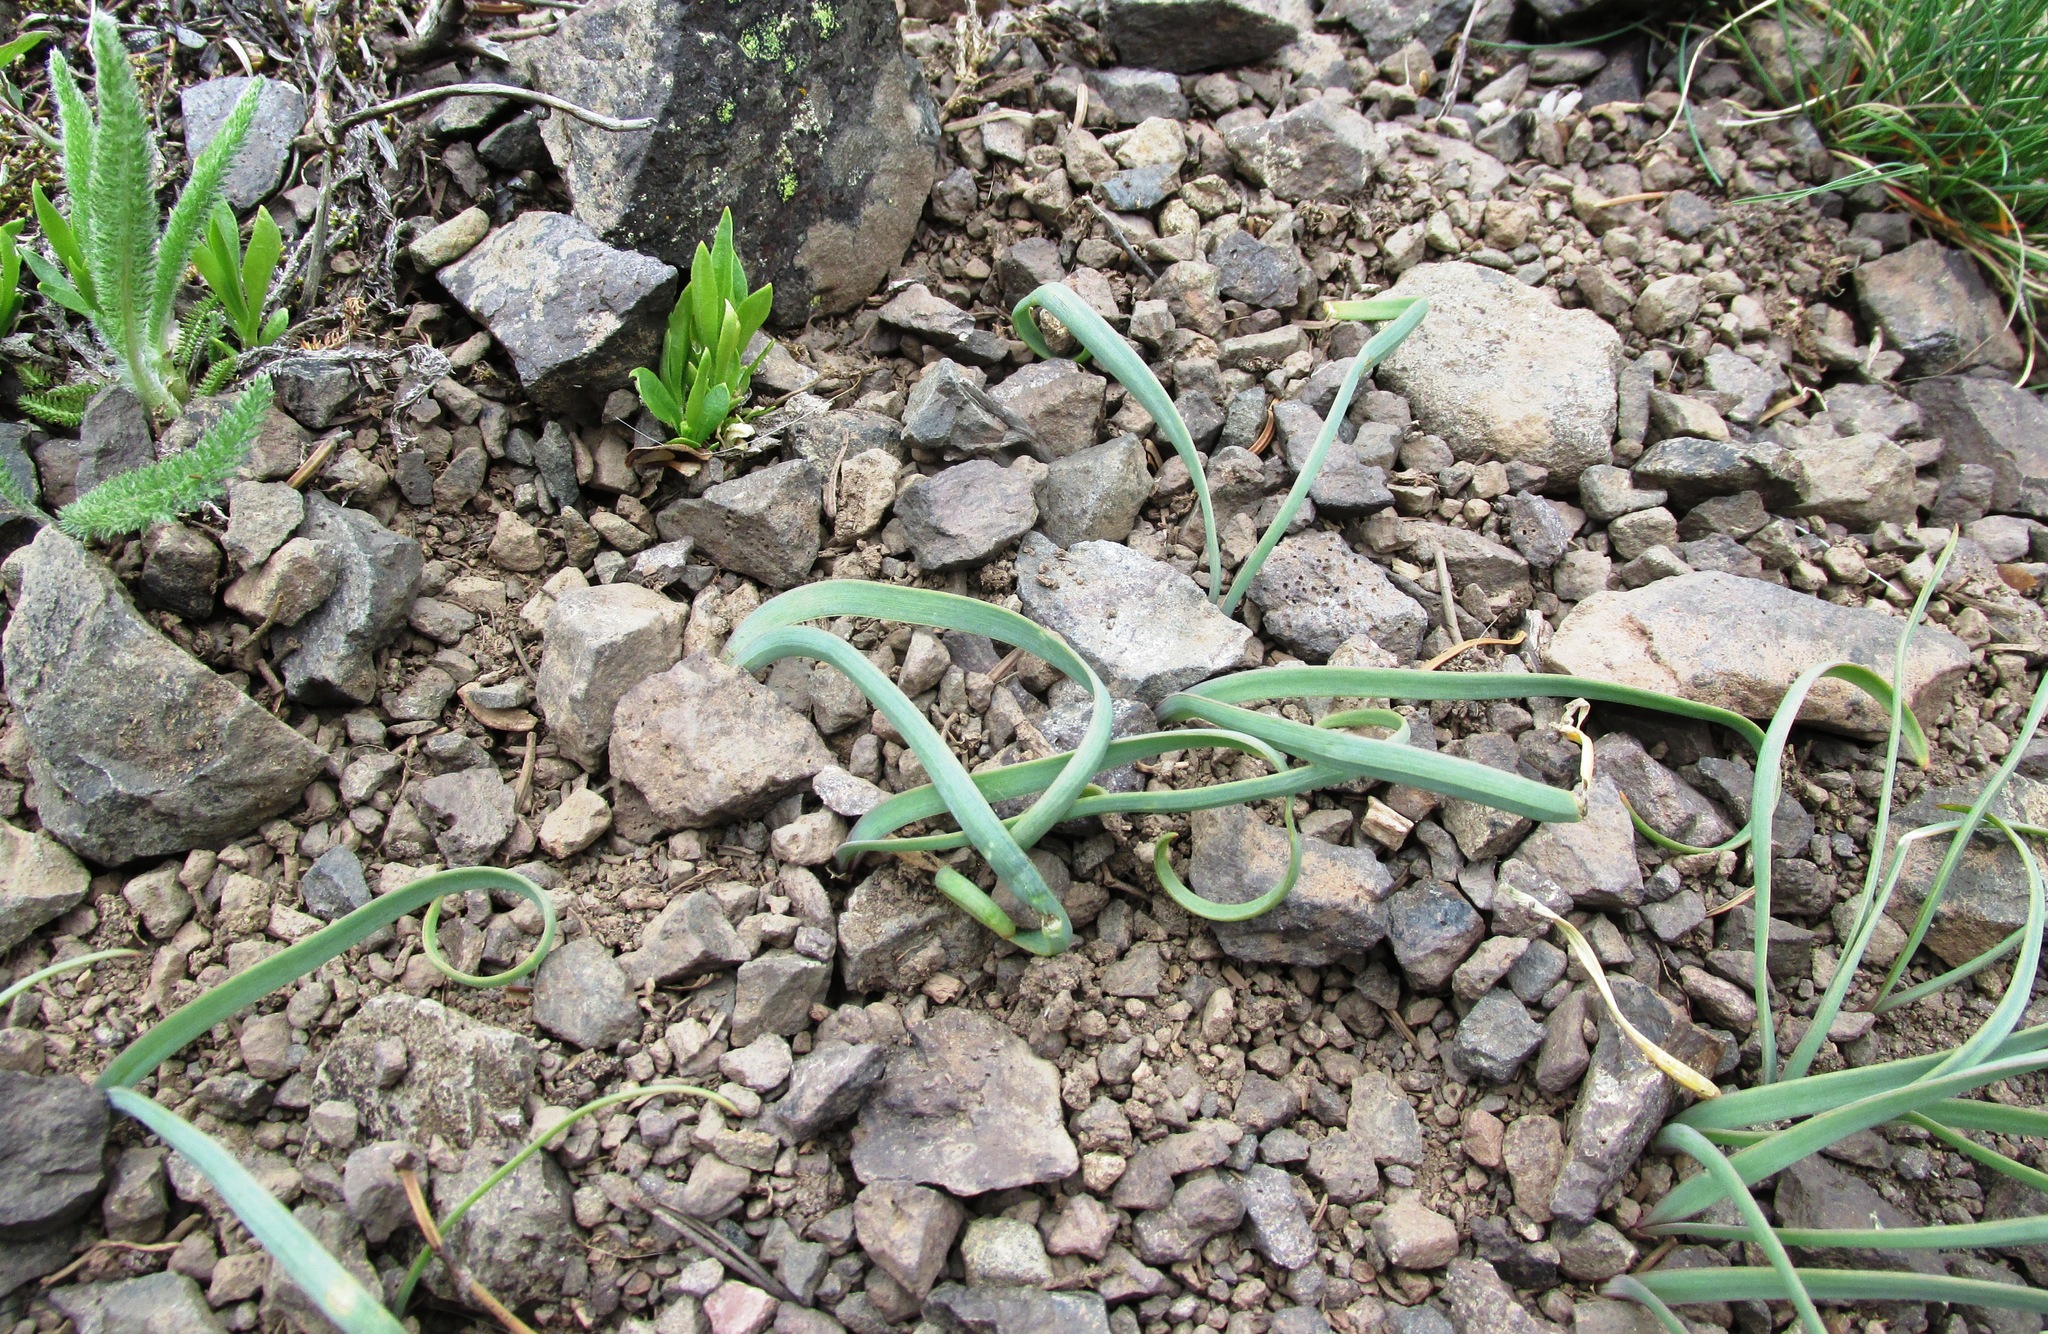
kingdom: Plantae
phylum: Tracheophyta
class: Liliopsida
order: Asparagales
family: Amaryllidaceae
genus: Allium
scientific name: Allium crenulatum
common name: Olympic onion
